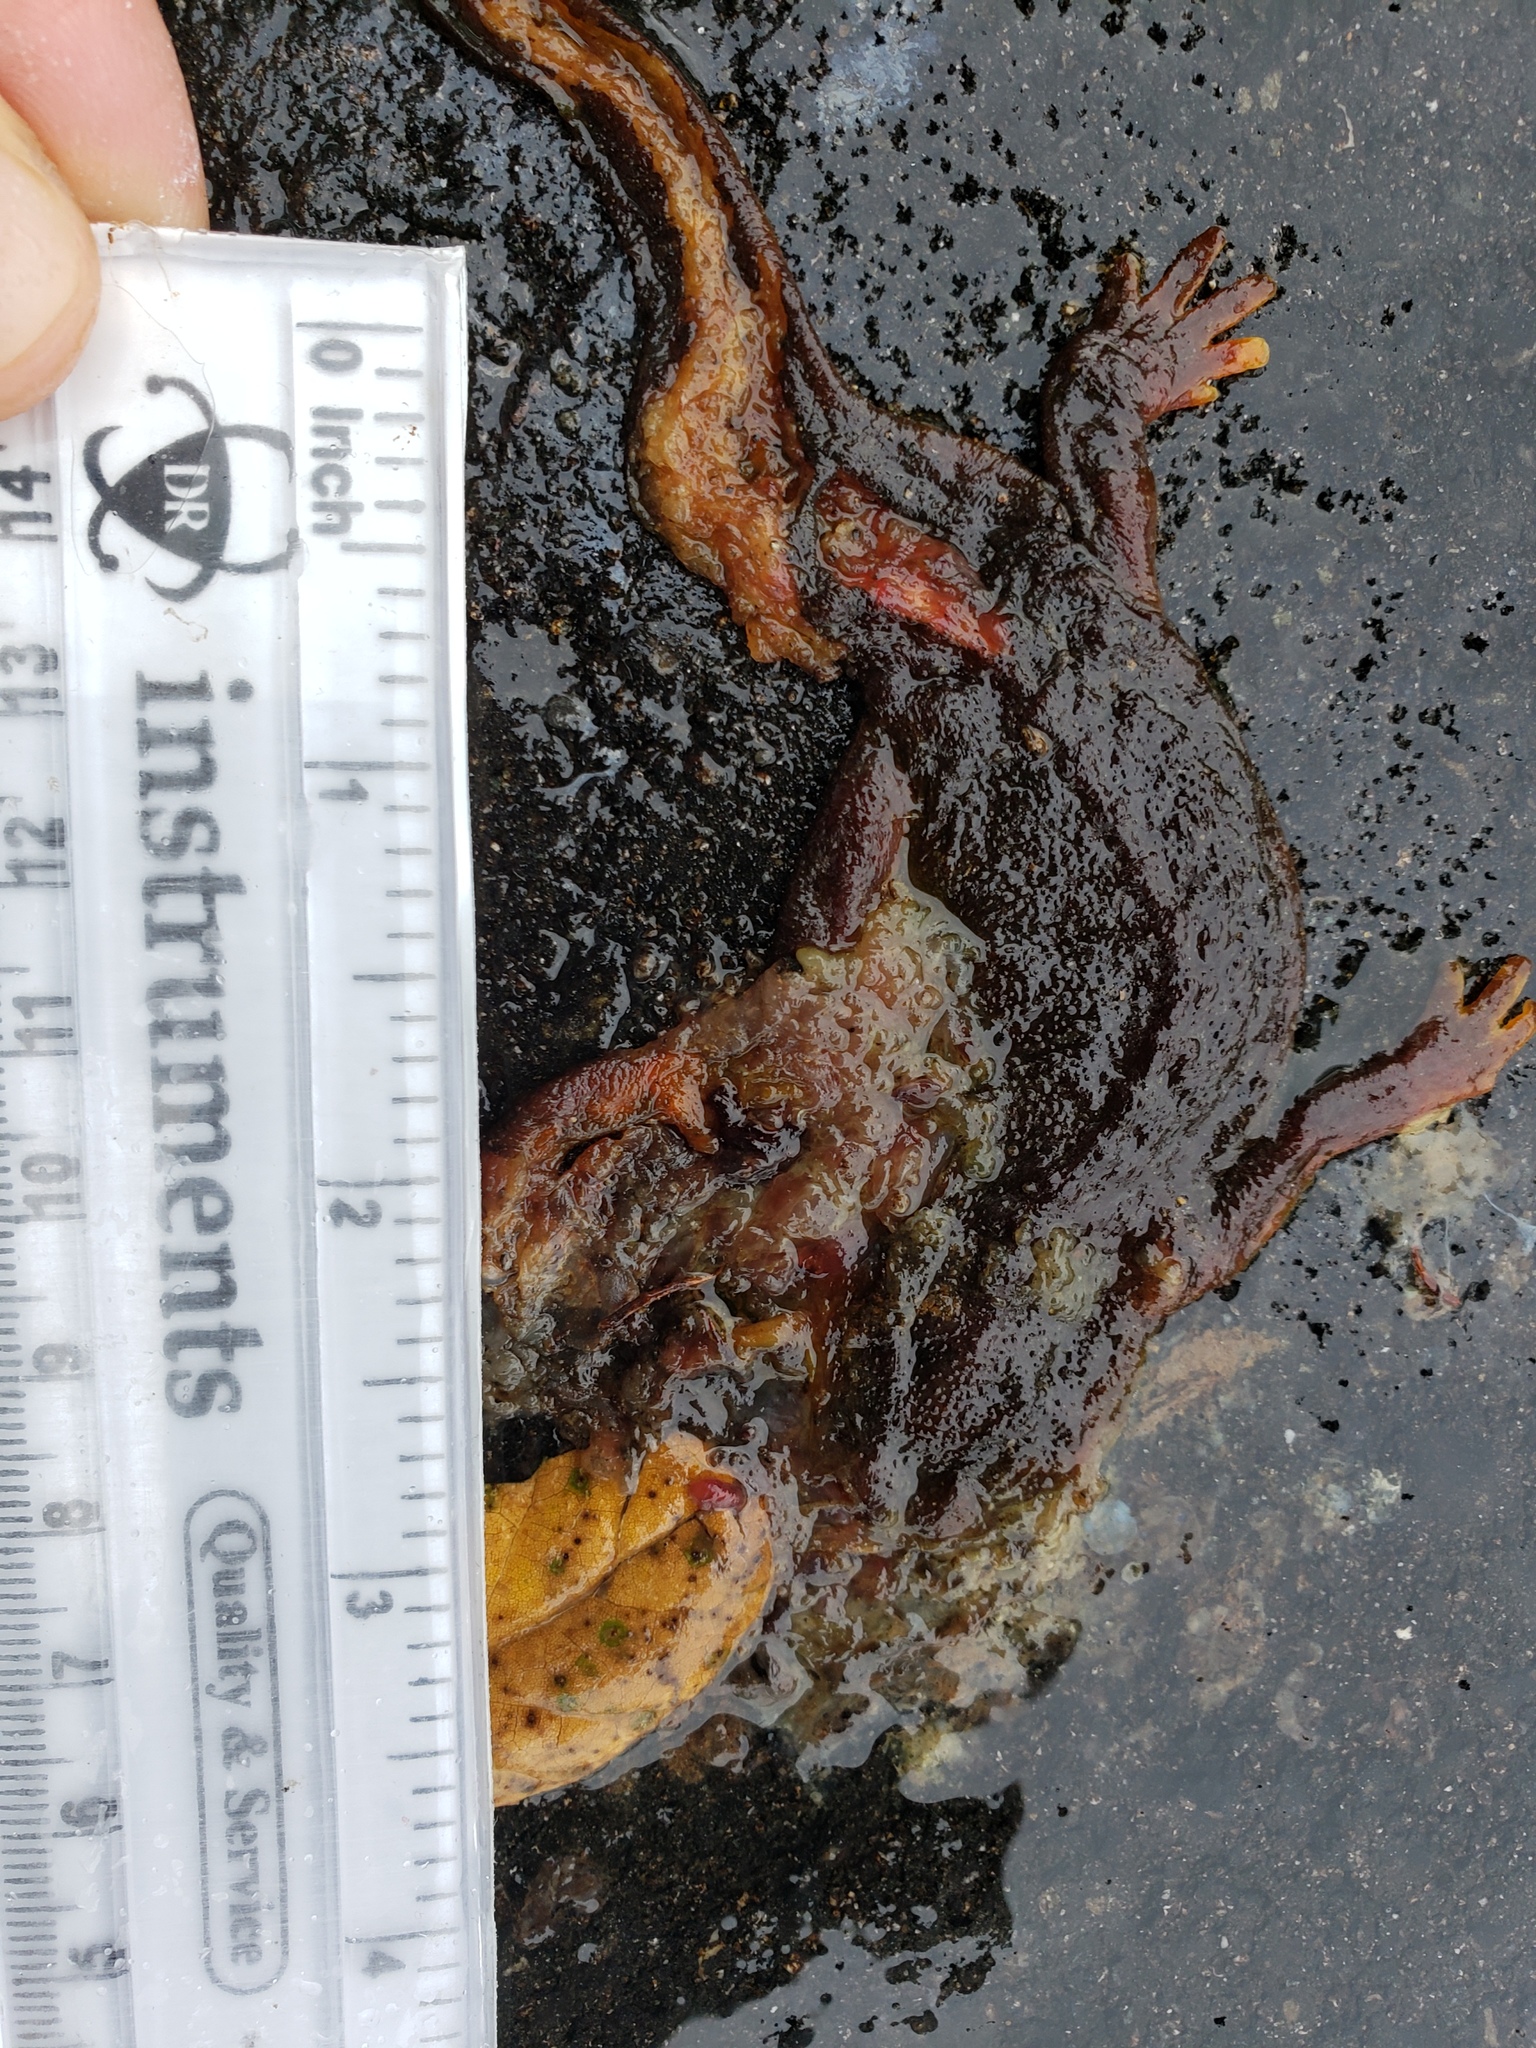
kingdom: Animalia
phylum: Chordata
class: Amphibia
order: Caudata
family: Salamandridae
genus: Taricha
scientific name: Taricha
